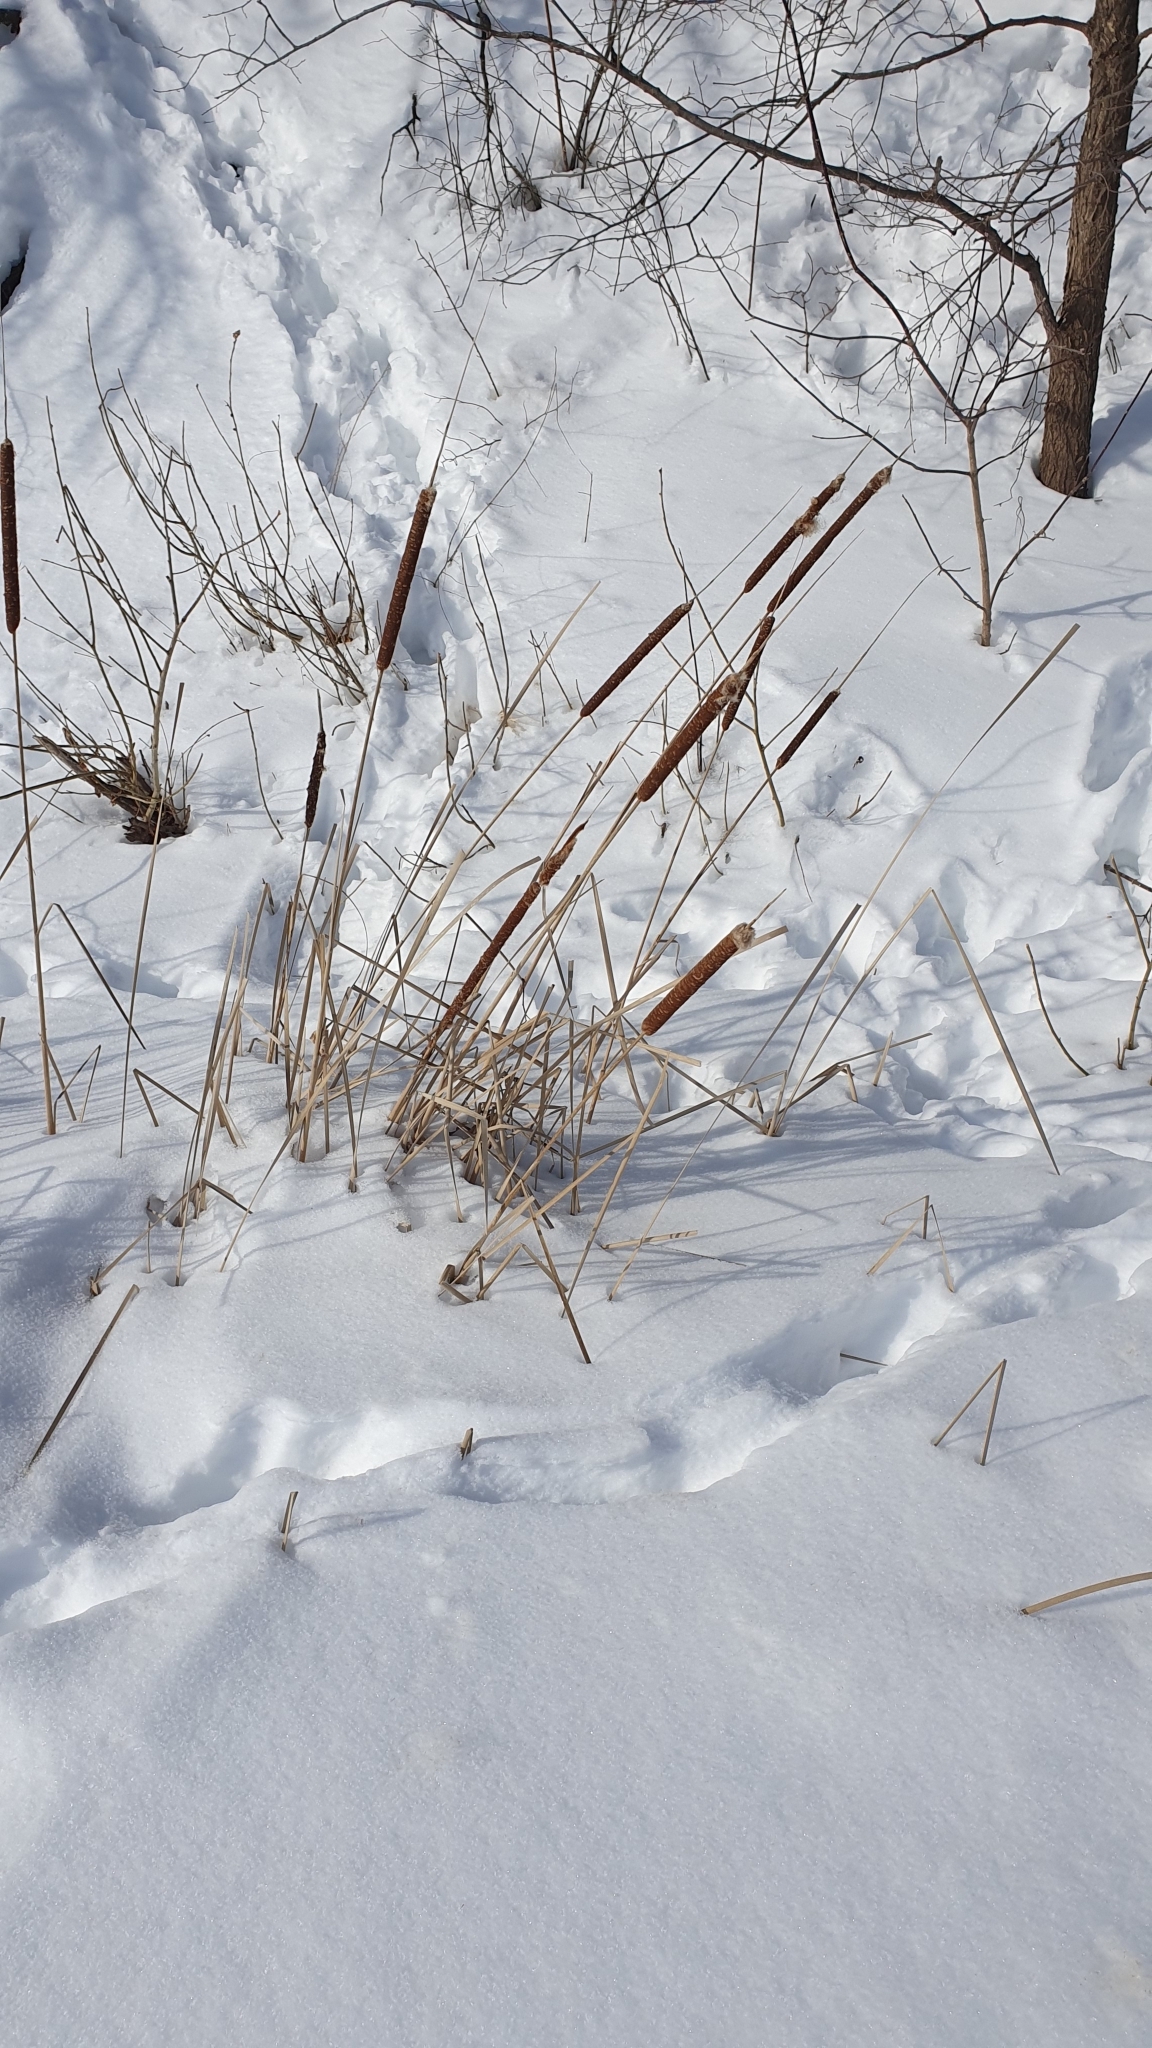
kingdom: Plantae
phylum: Tracheophyta
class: Liliopsida
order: Poales
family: Typhaceae
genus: Typha
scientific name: Typha angustifolia
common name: Lesser bulrush
